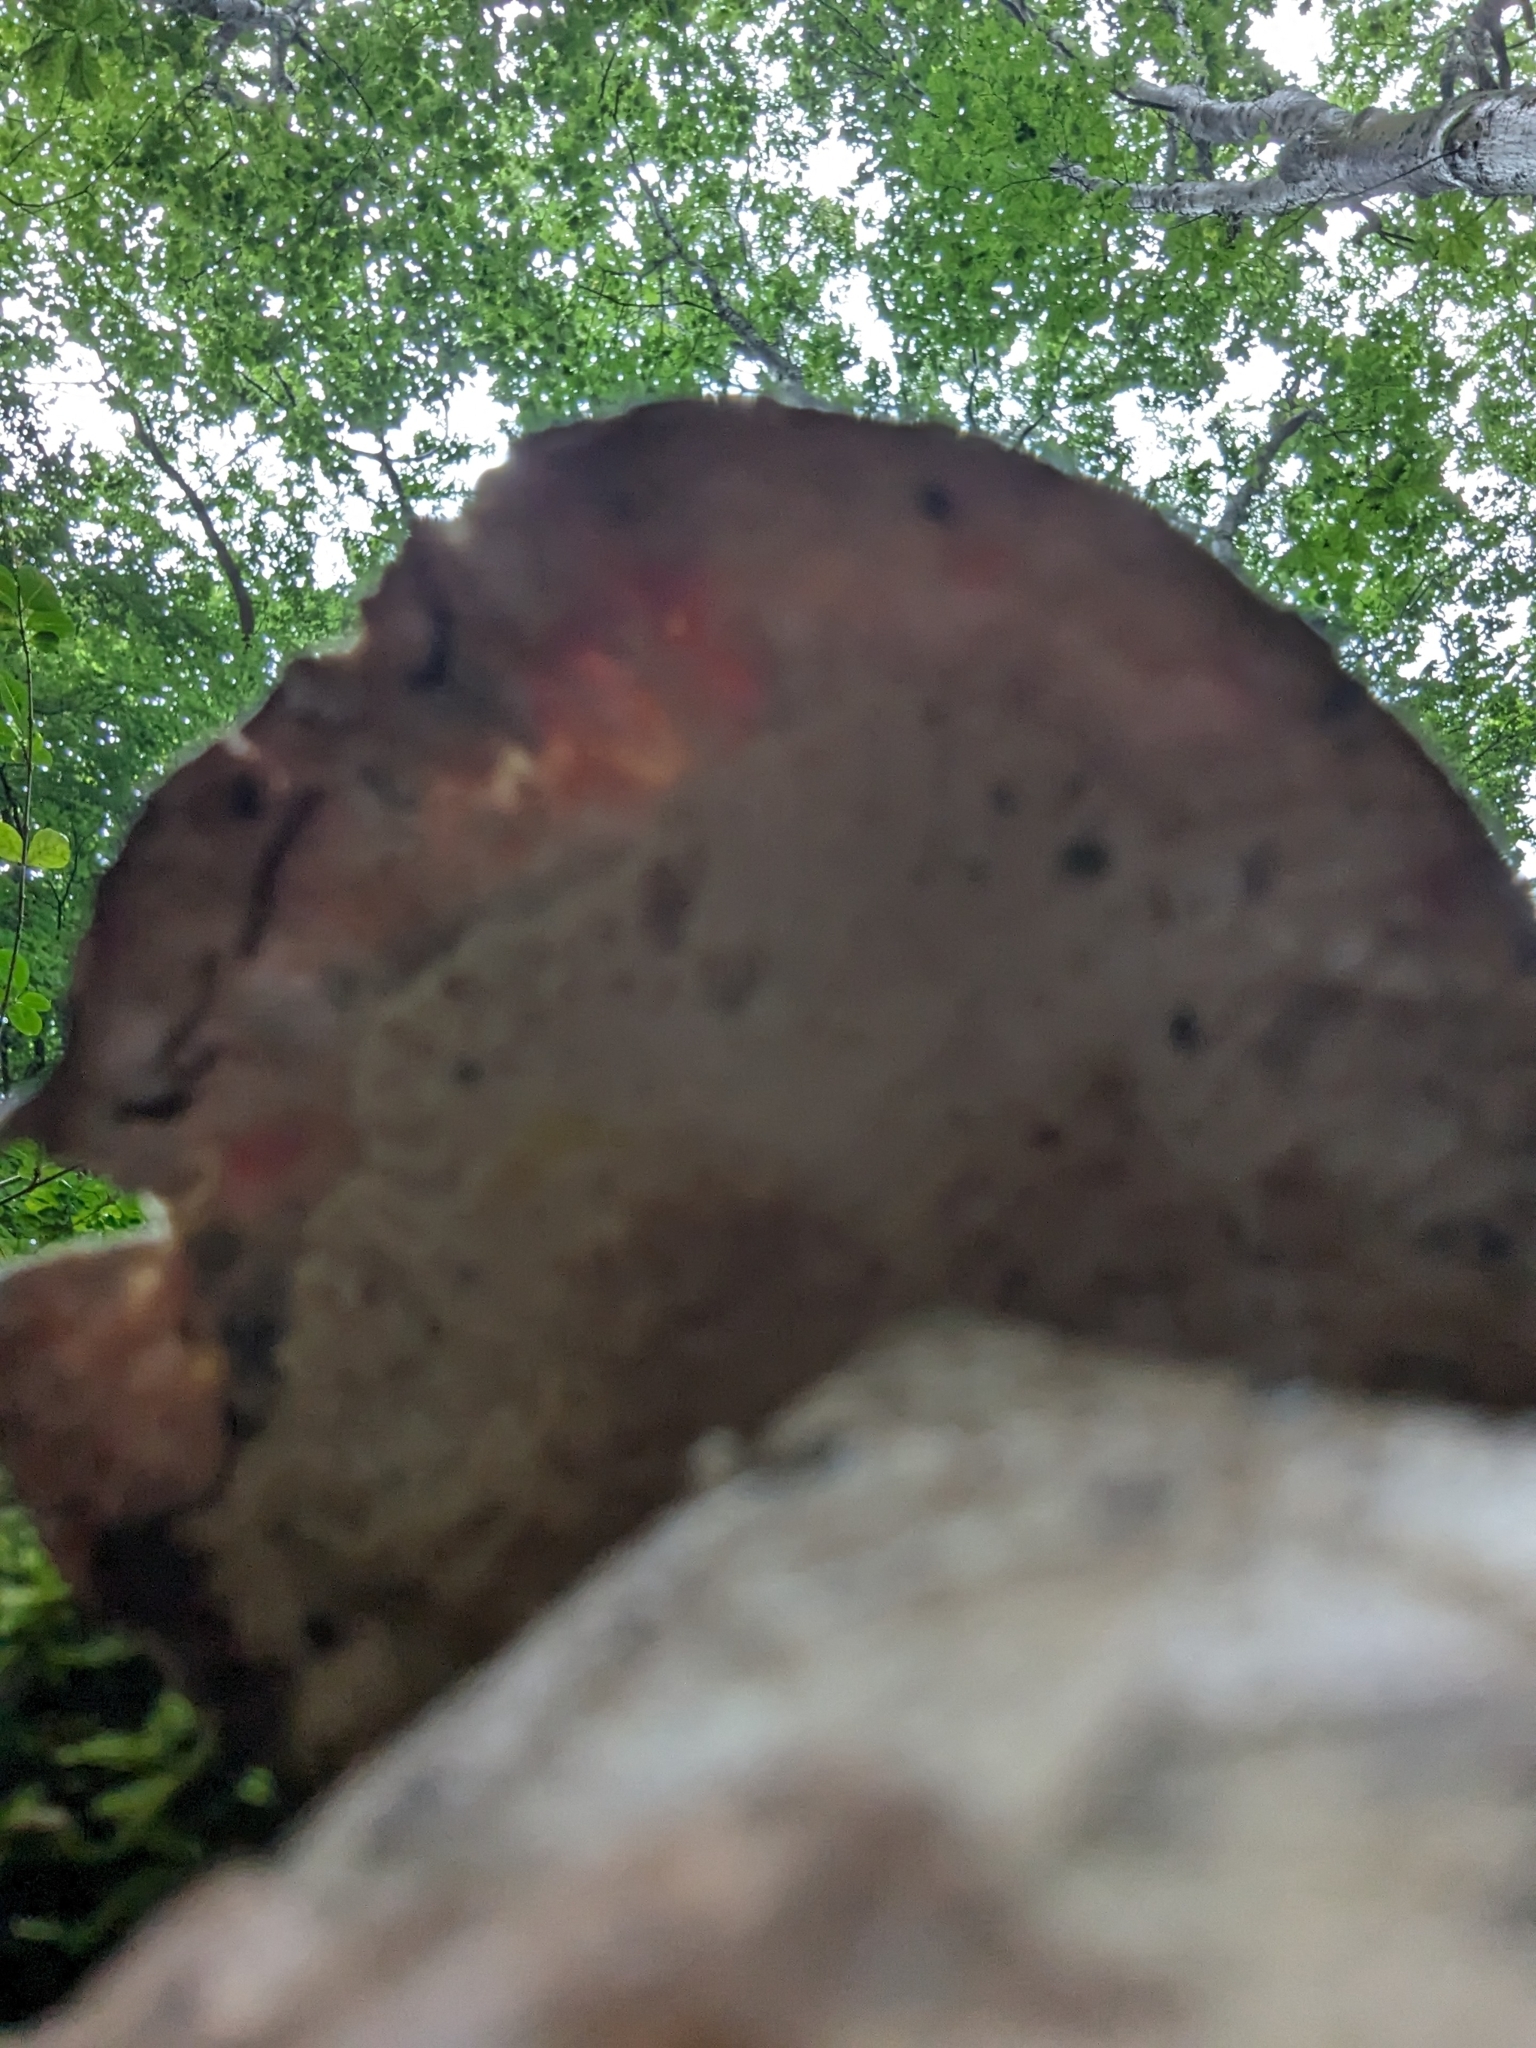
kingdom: Fungi
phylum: Basidiomycota
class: Agaricomycetes
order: Polyporales
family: Fomitopsidaceae
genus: Fomitopsis
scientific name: Fomitopsis betulina
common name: Birch polypore
